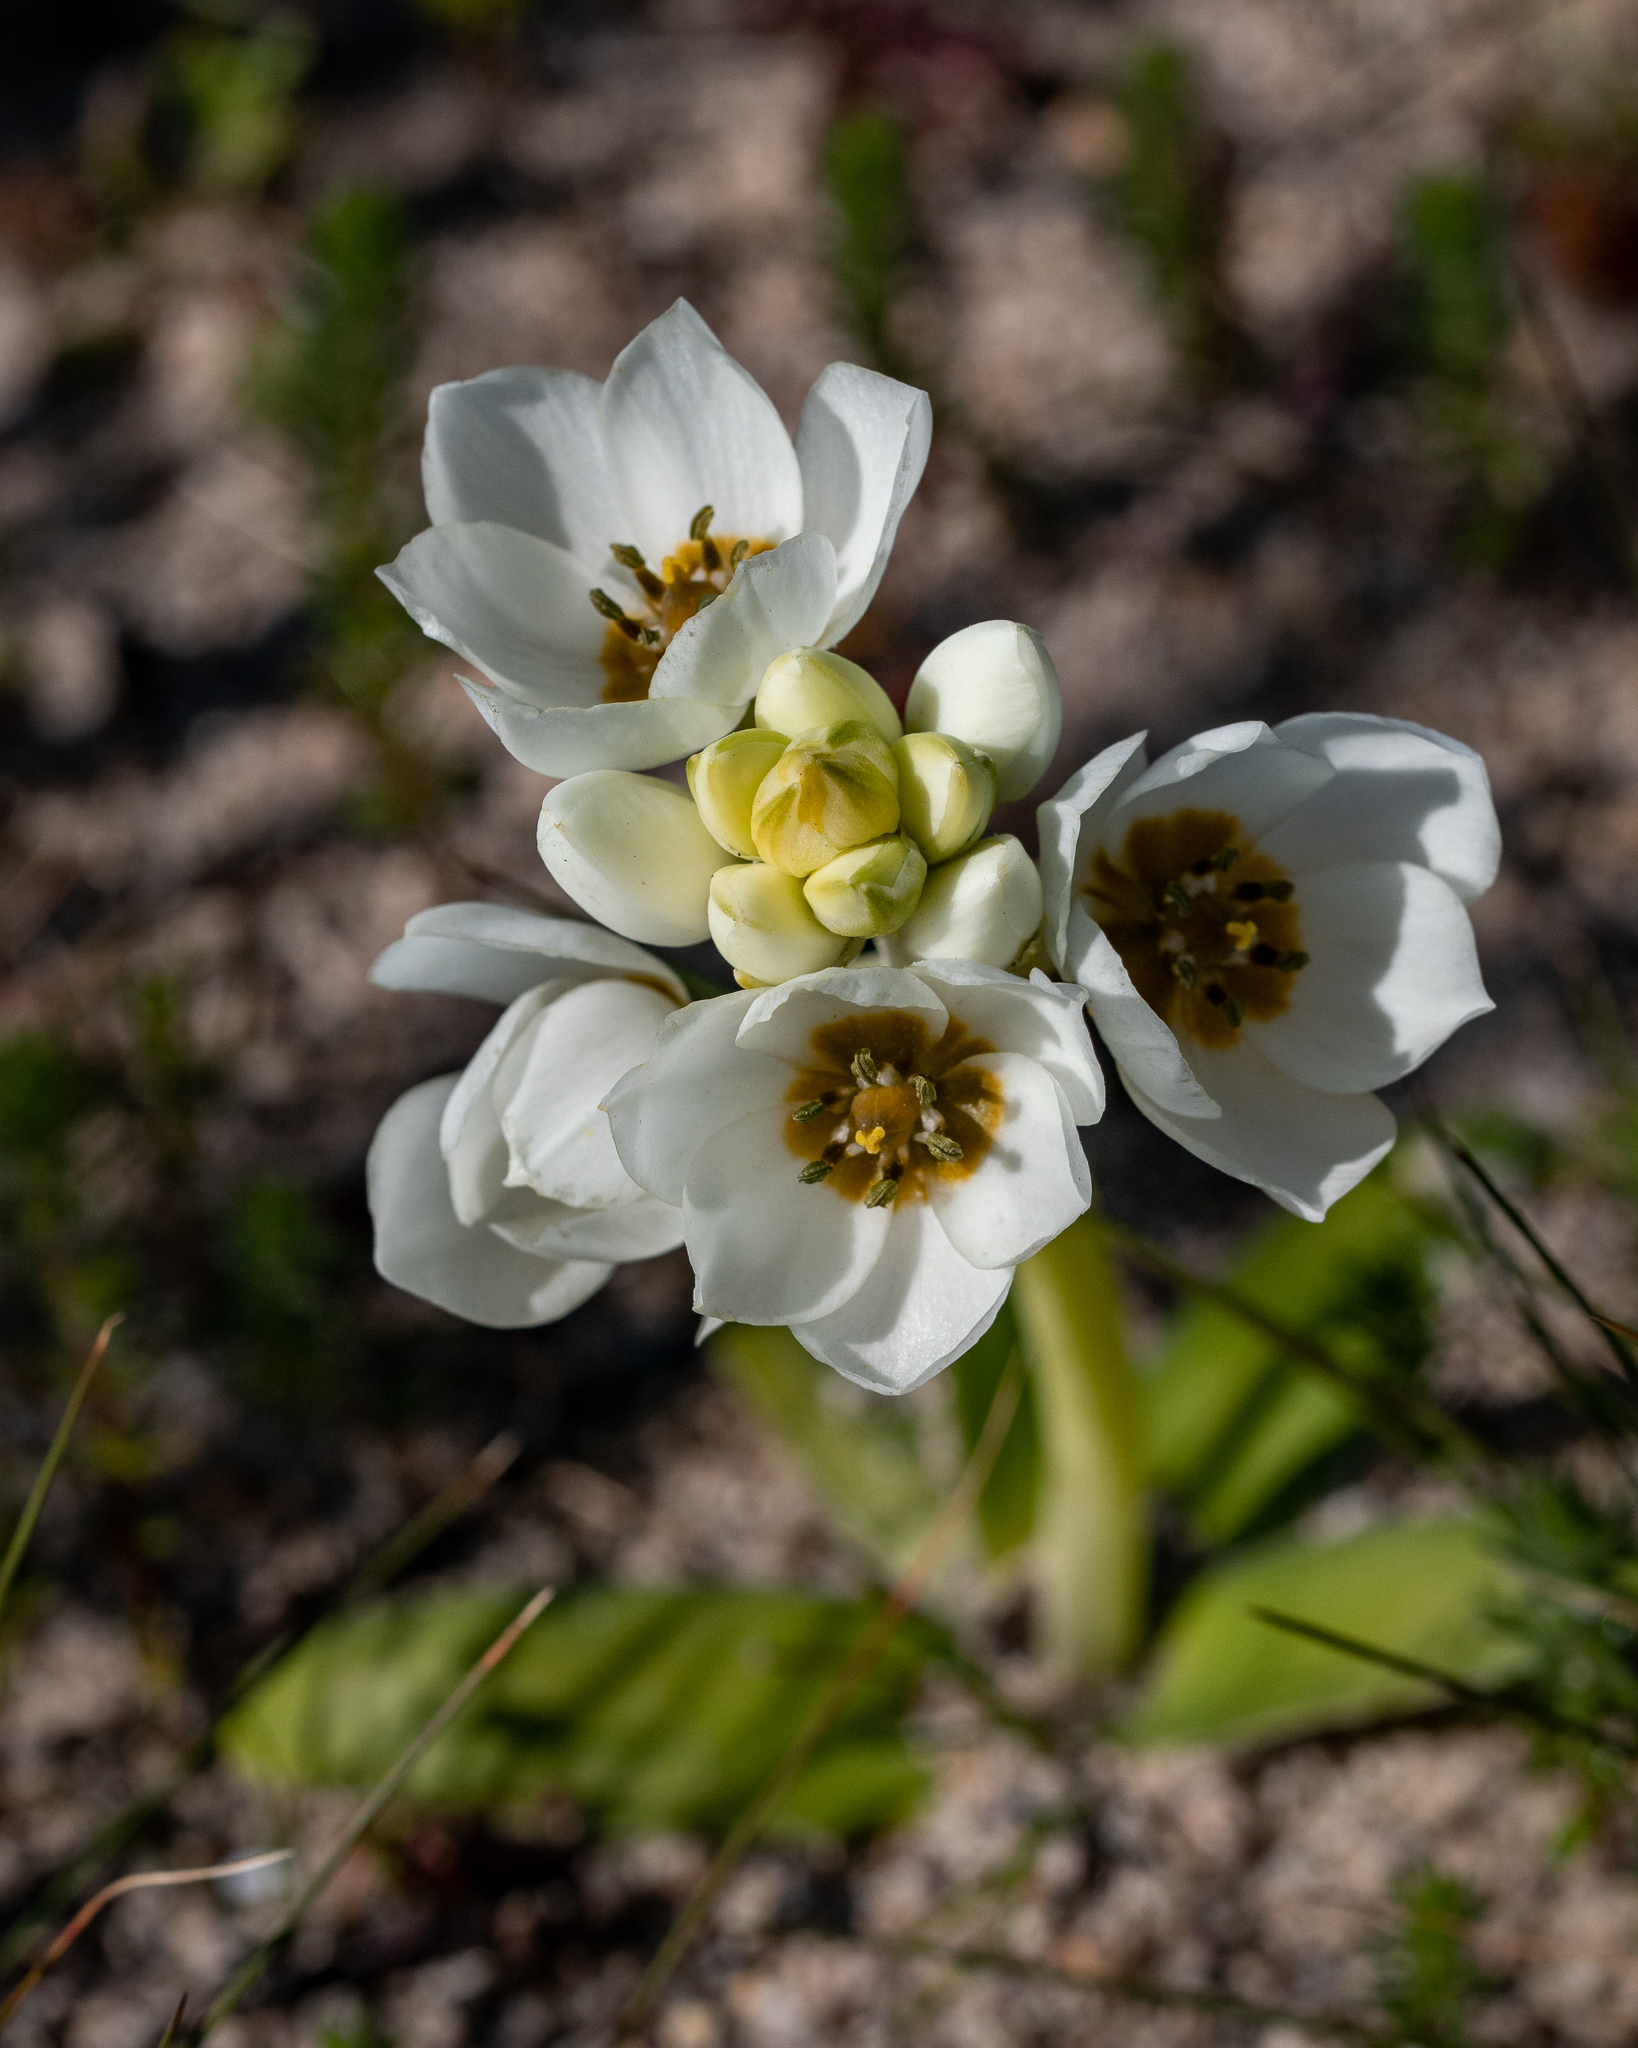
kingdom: Plantae
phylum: Tracheophyta
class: Liliopsida
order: Asparagales
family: Asparagaceae
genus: Ornithogalum
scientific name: Ornithogalum thyrsoides
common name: Chincherinchee
